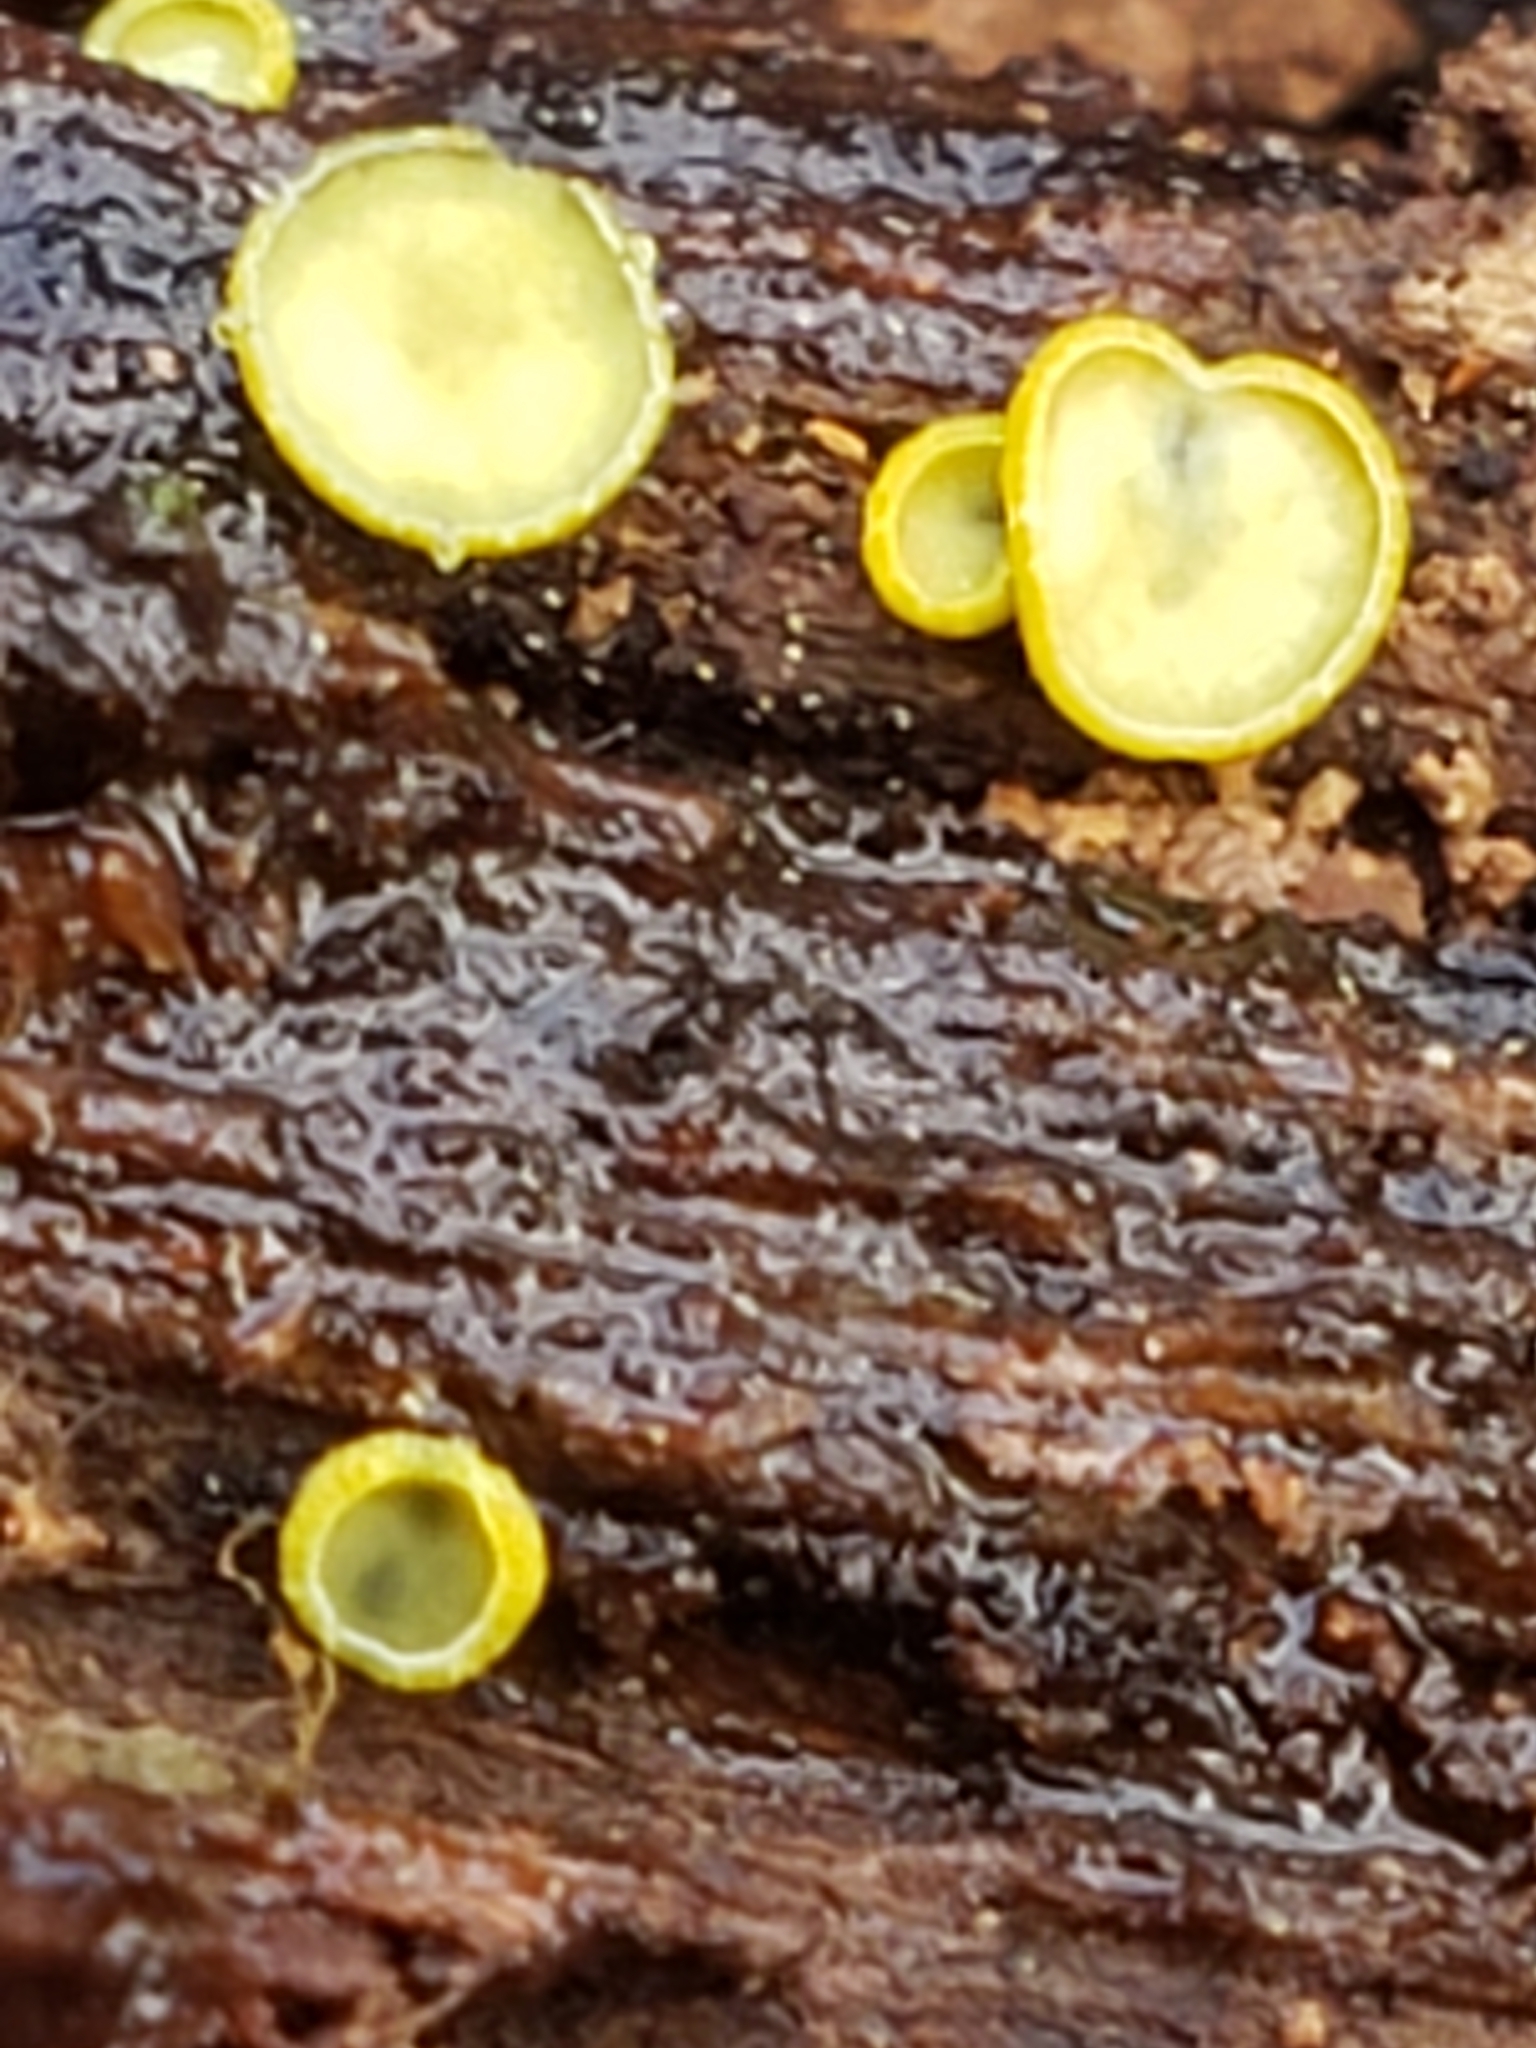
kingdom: Fungi
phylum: Ascomycota
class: Leotiomycetes
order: Helotiales
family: Chlorospleniaceae
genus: Chlorosplenium
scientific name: Chlorosplenium chlora
